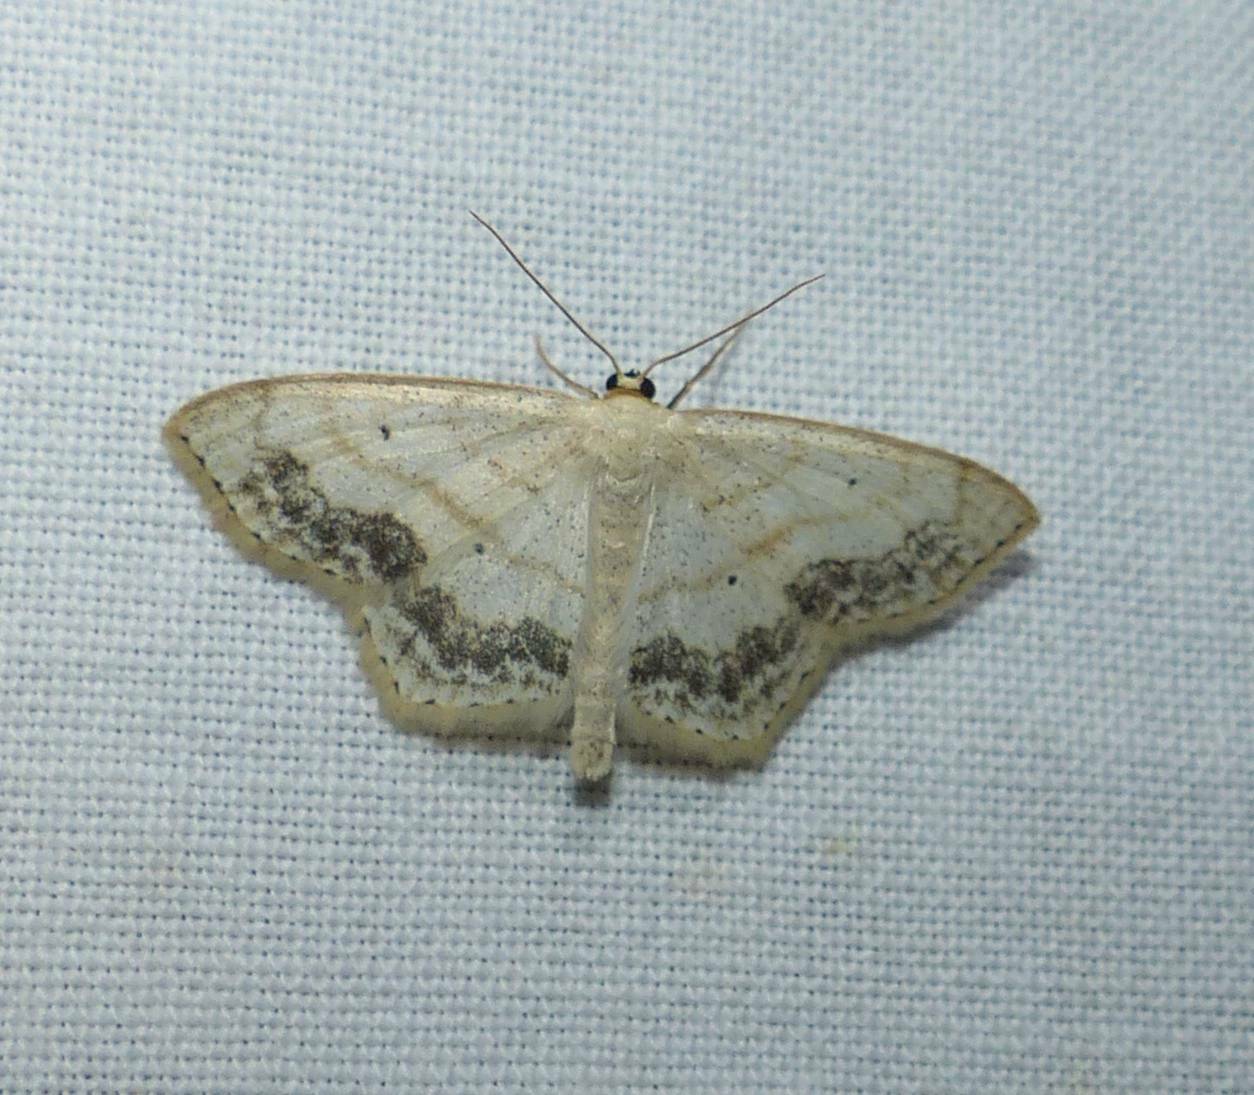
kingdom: Animalia
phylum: Arthropoda
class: Insecta
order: Lepidoptera
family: Geometridae
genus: Scopula
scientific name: Scopula limboundata
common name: Large lace border
